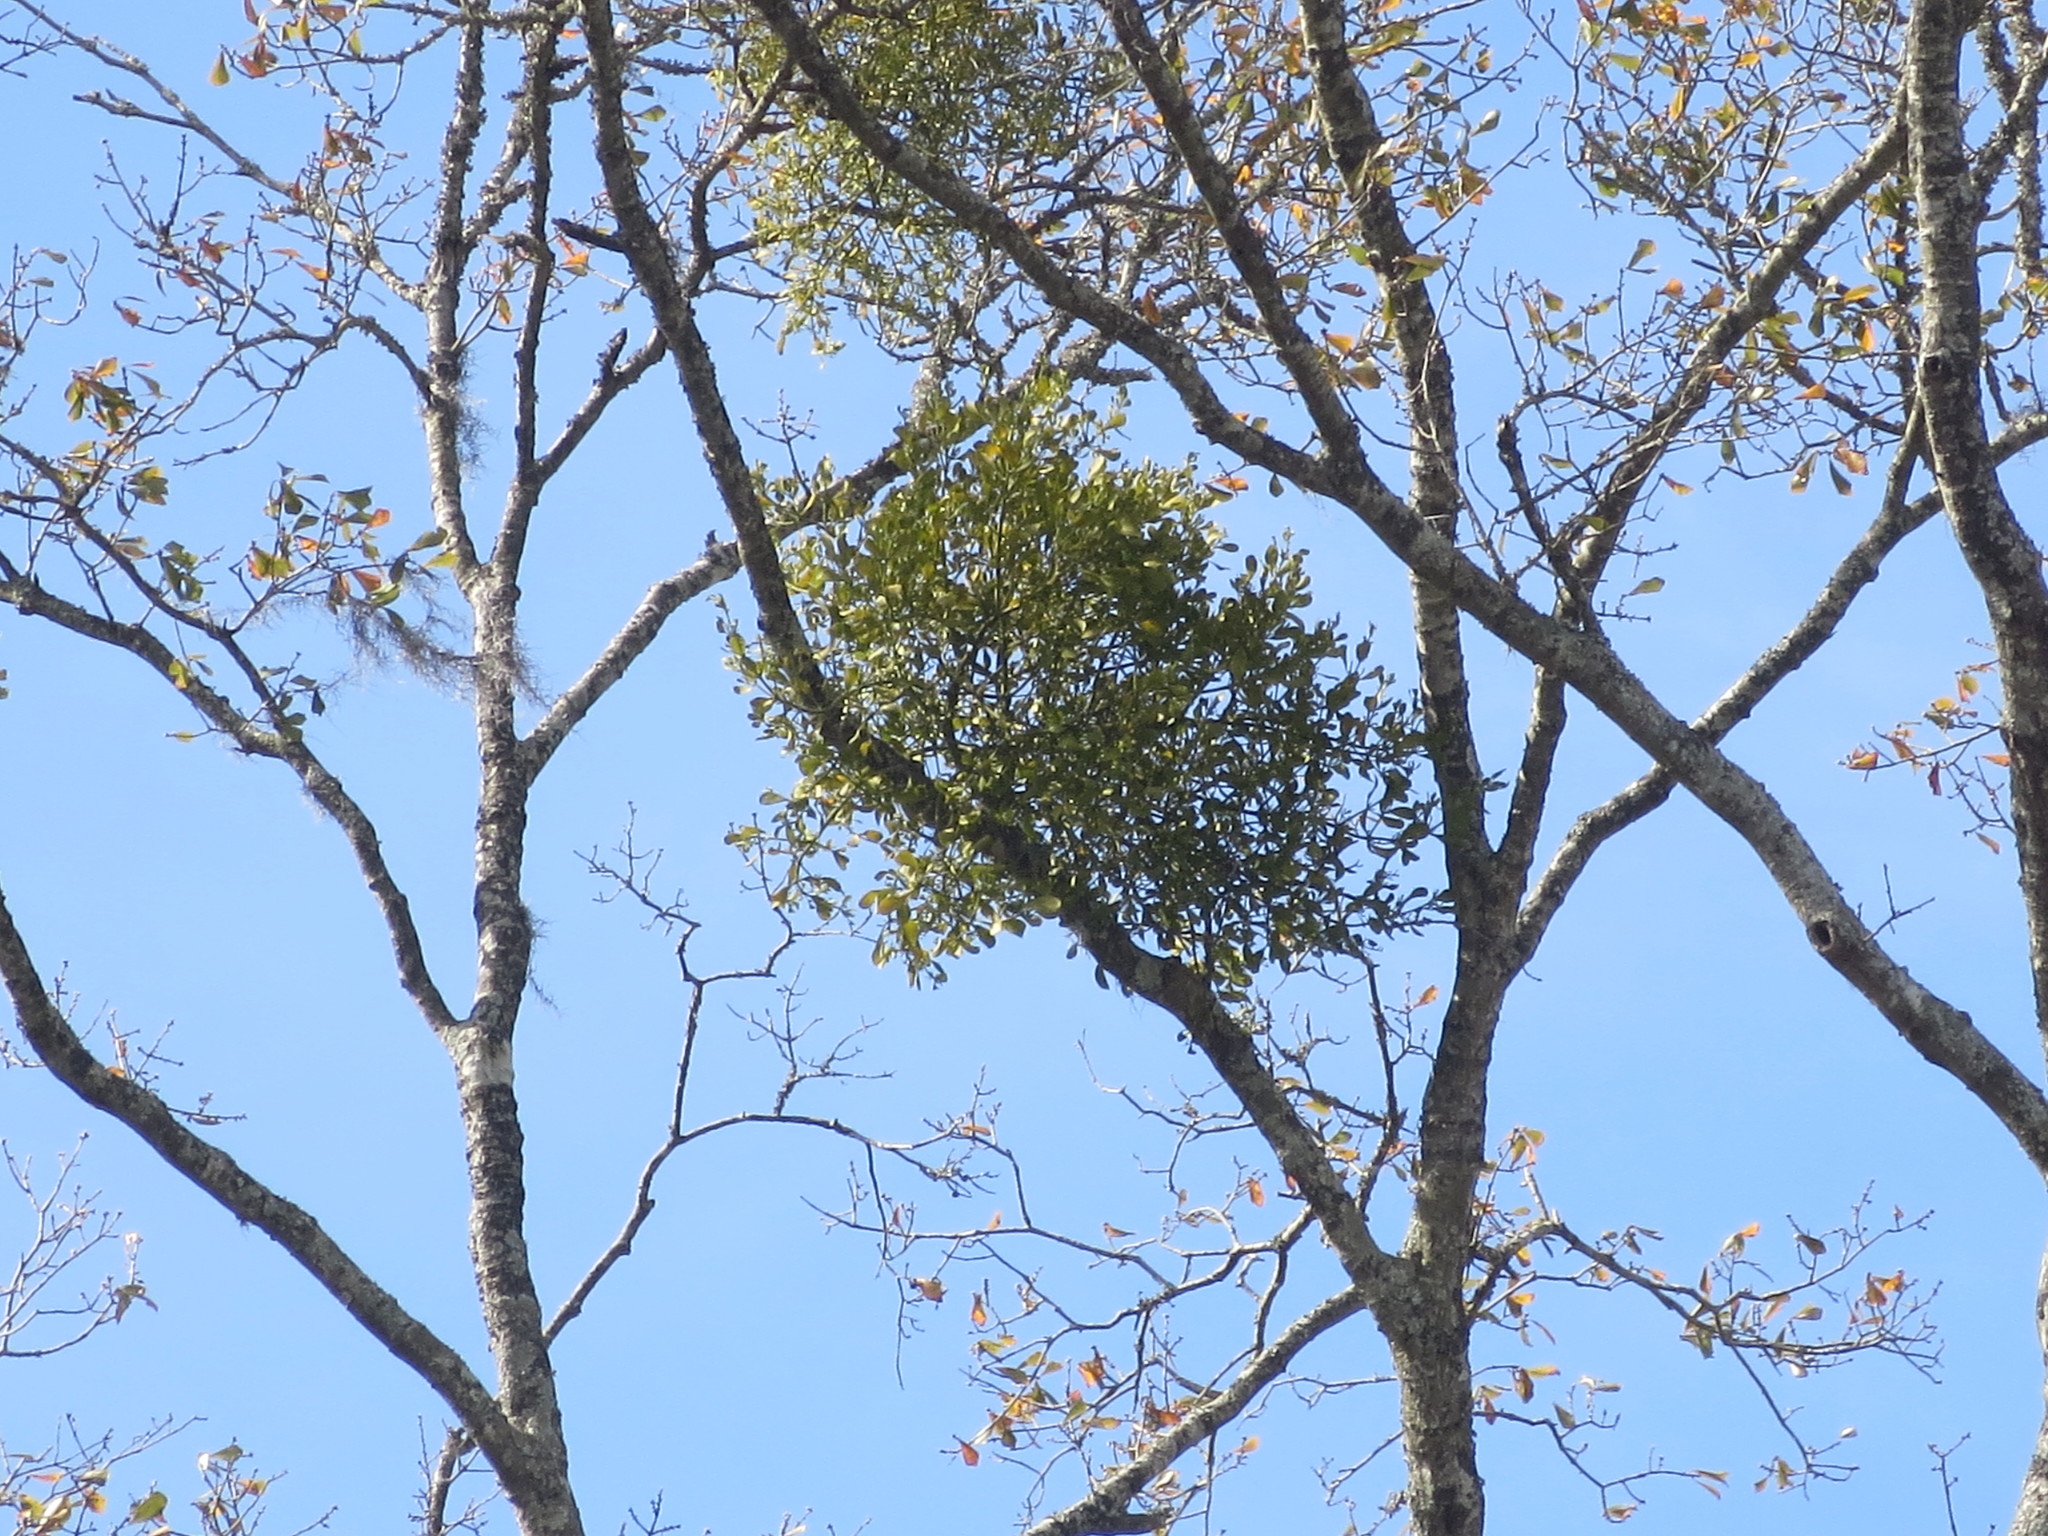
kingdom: Plantae
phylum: Tracheophyta
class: Magnoliopsida
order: Santalales
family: Viscaceae
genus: Phoradendron
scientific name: Phoradendron leucarpum
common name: Pacific mistletoe
